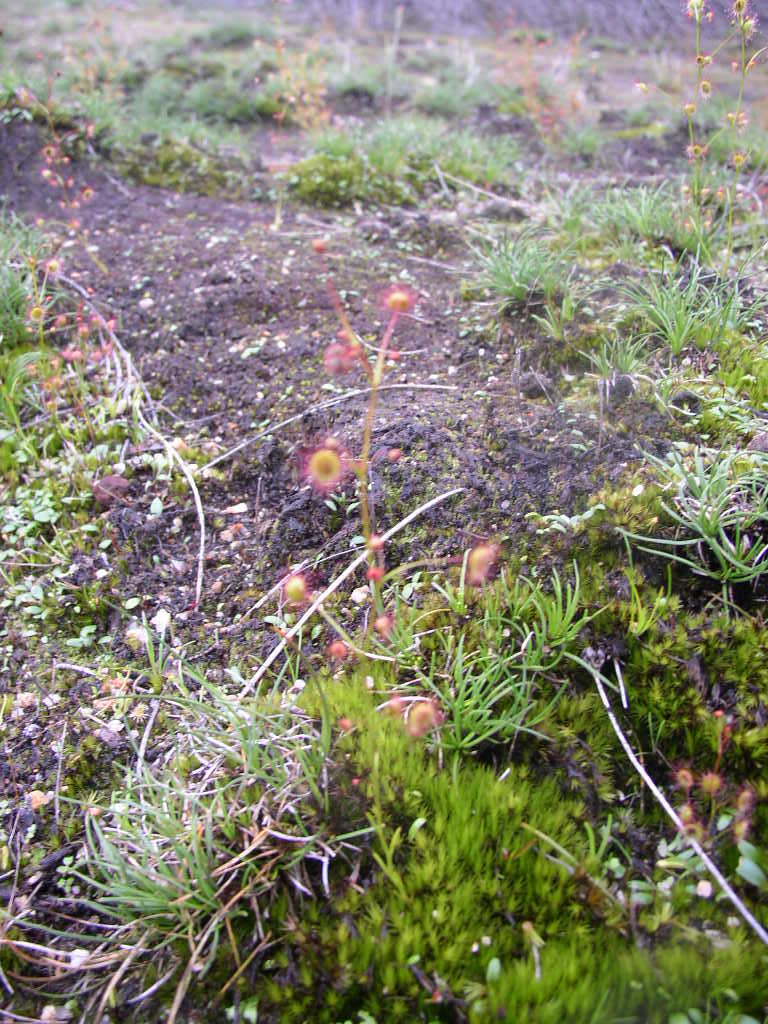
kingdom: Plantae
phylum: Tracheophyta
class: Magnoliopsida
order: Caryophyllales
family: Droseraceae
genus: Drosera
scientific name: Drosera menziesii
